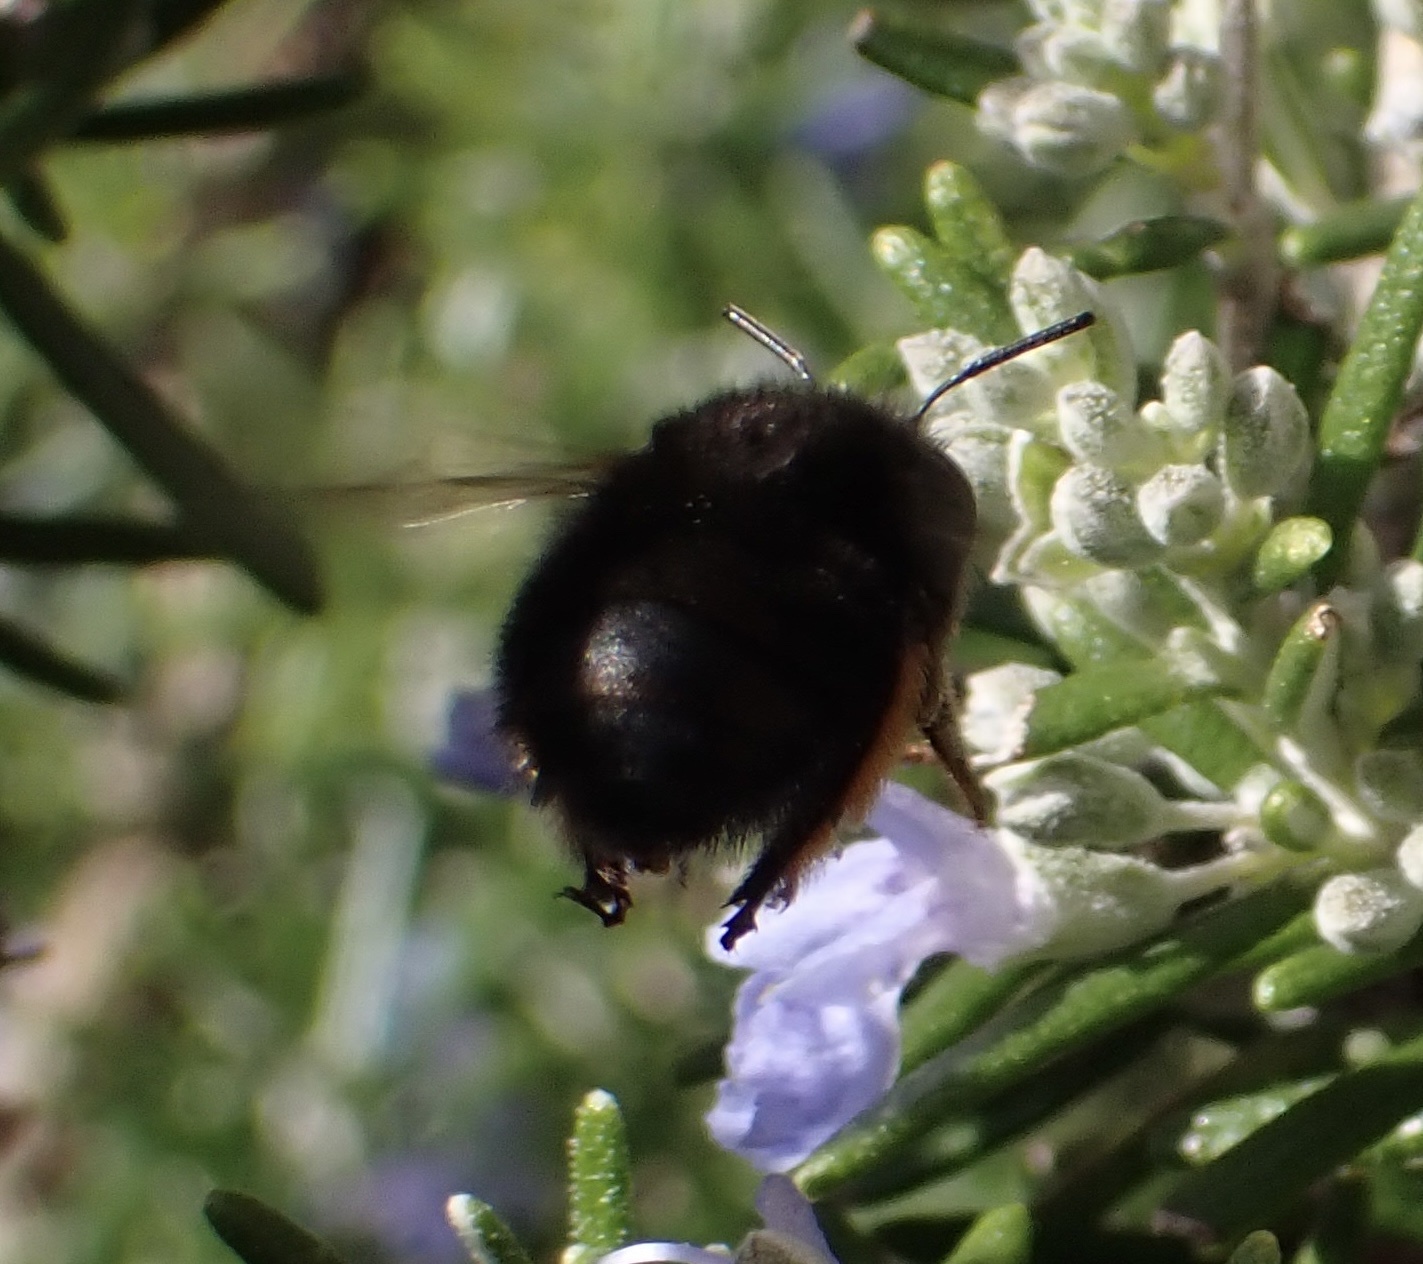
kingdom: Animalia
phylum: Arthropoda
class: Insecta
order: Hymenoptera
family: Apidae
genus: Anthophora
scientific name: Anthophora plumipes
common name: Hairy-footed flower bee
